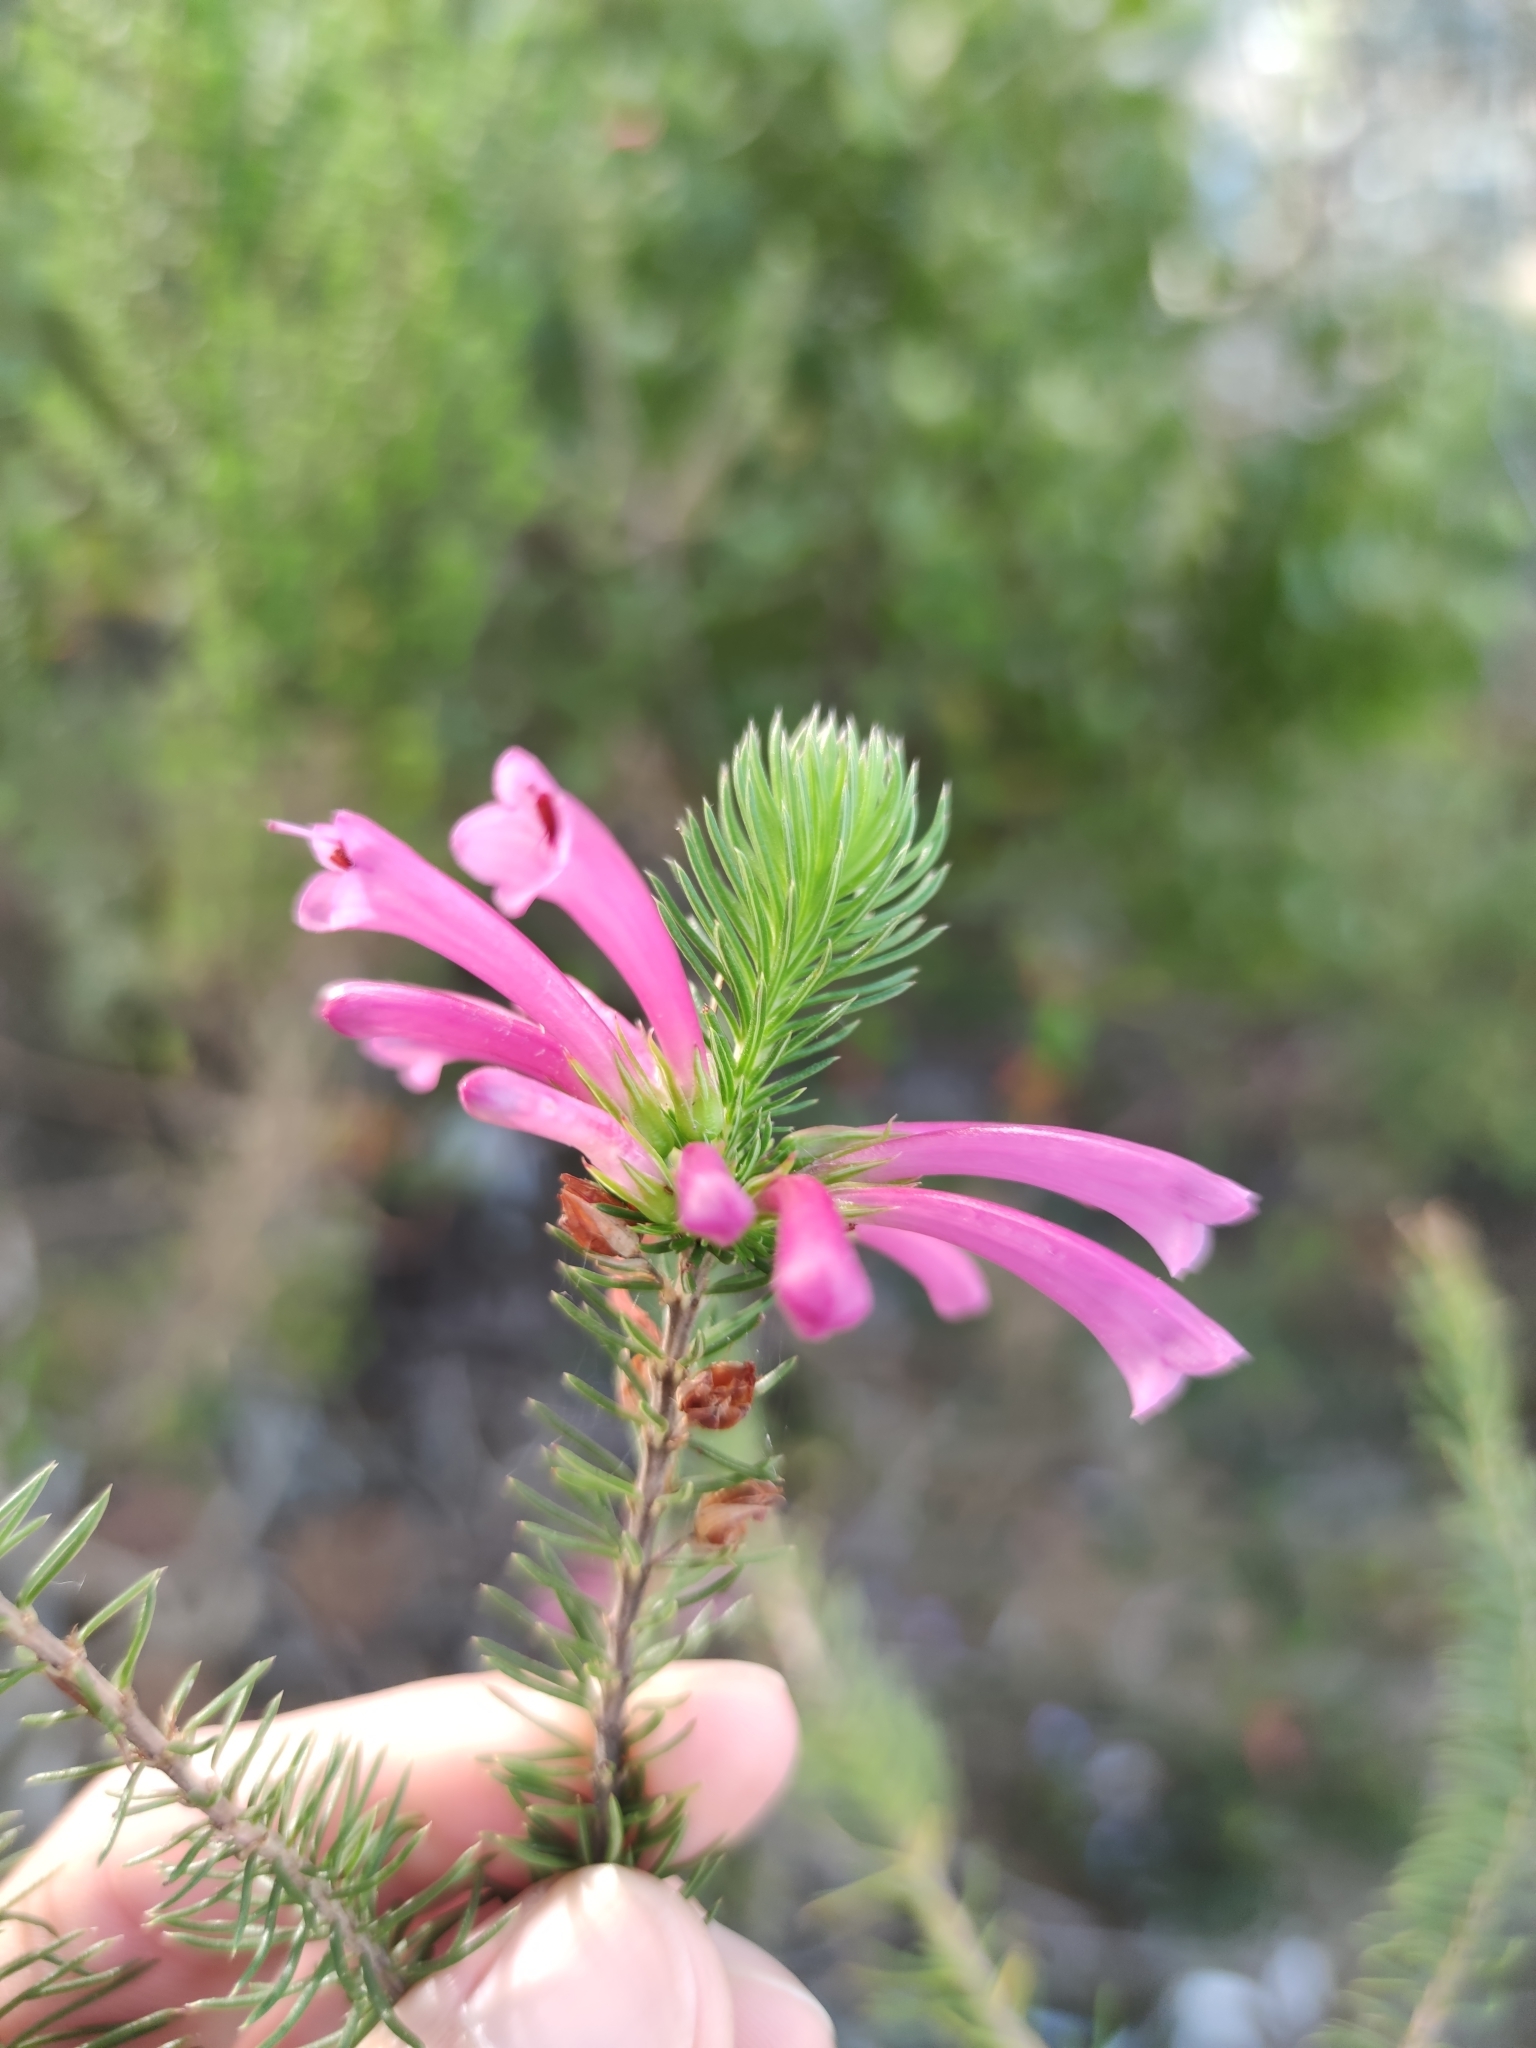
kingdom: Plantae
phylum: Tracheophyta
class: Magnoliopsida
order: Ericales
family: Ericaceae
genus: Erica
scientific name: Erica abietina
